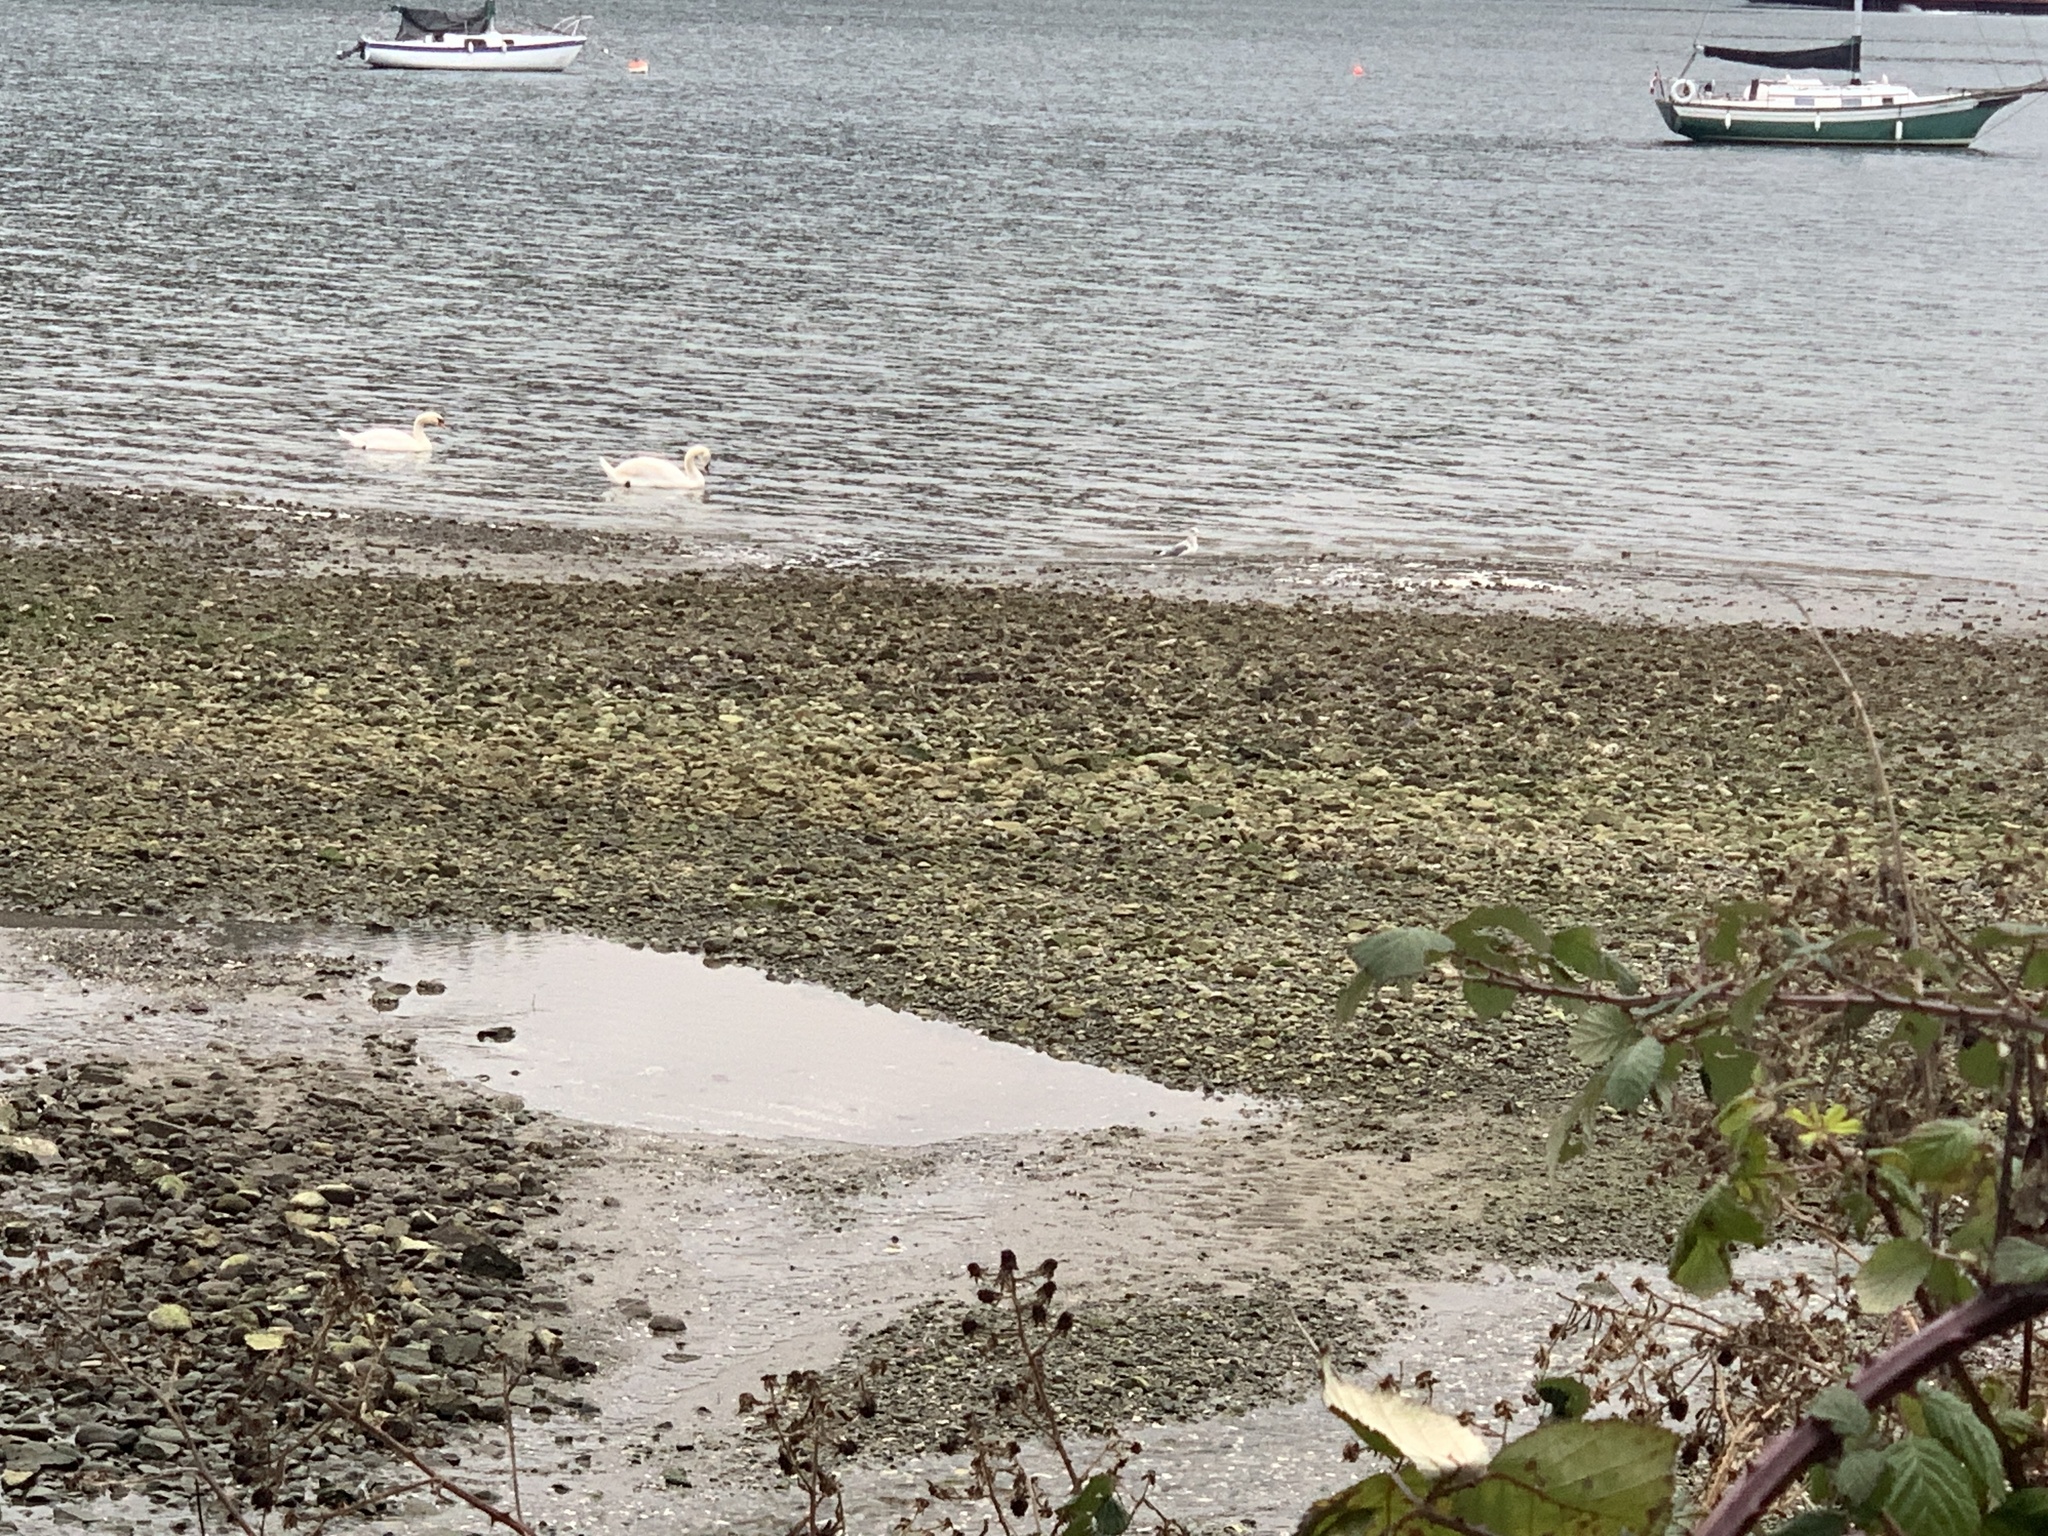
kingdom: Animalia
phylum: Chordata
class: Aves
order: Anseriformes
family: Anatidae
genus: Cygnus
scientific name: Cygnus olor
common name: Mute swan
